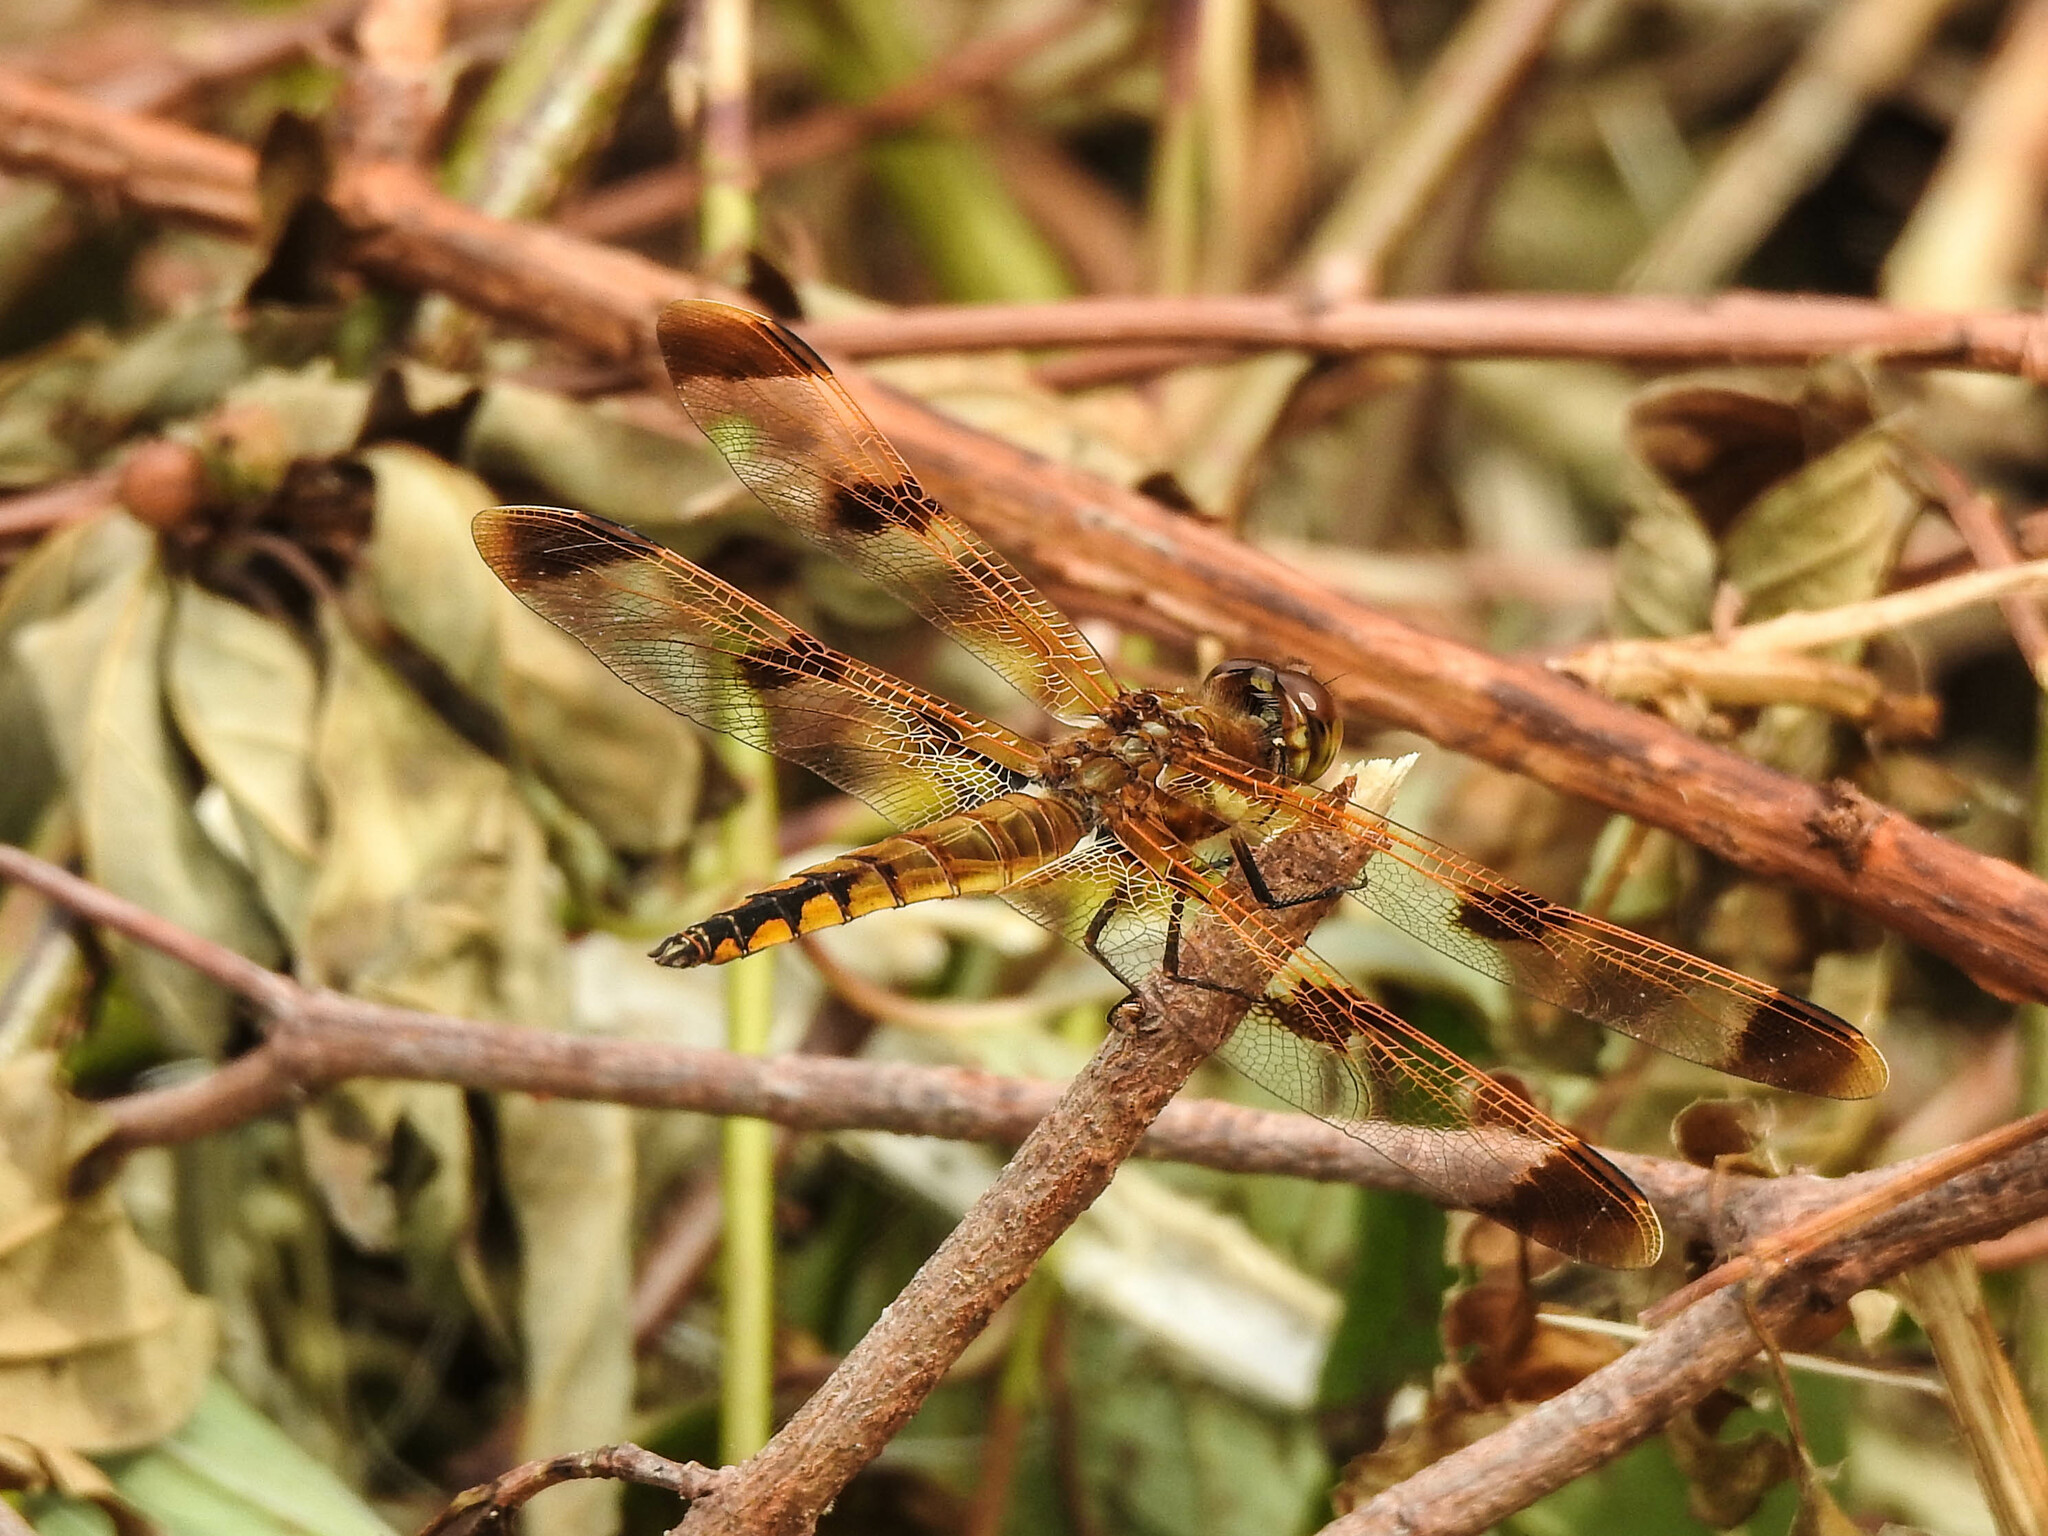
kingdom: Animalia
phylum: Arthropoda
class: Insecta
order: Odonata
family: Libellulidae
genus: Libellula
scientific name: Libellula semifasciata
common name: Painted skimmer
